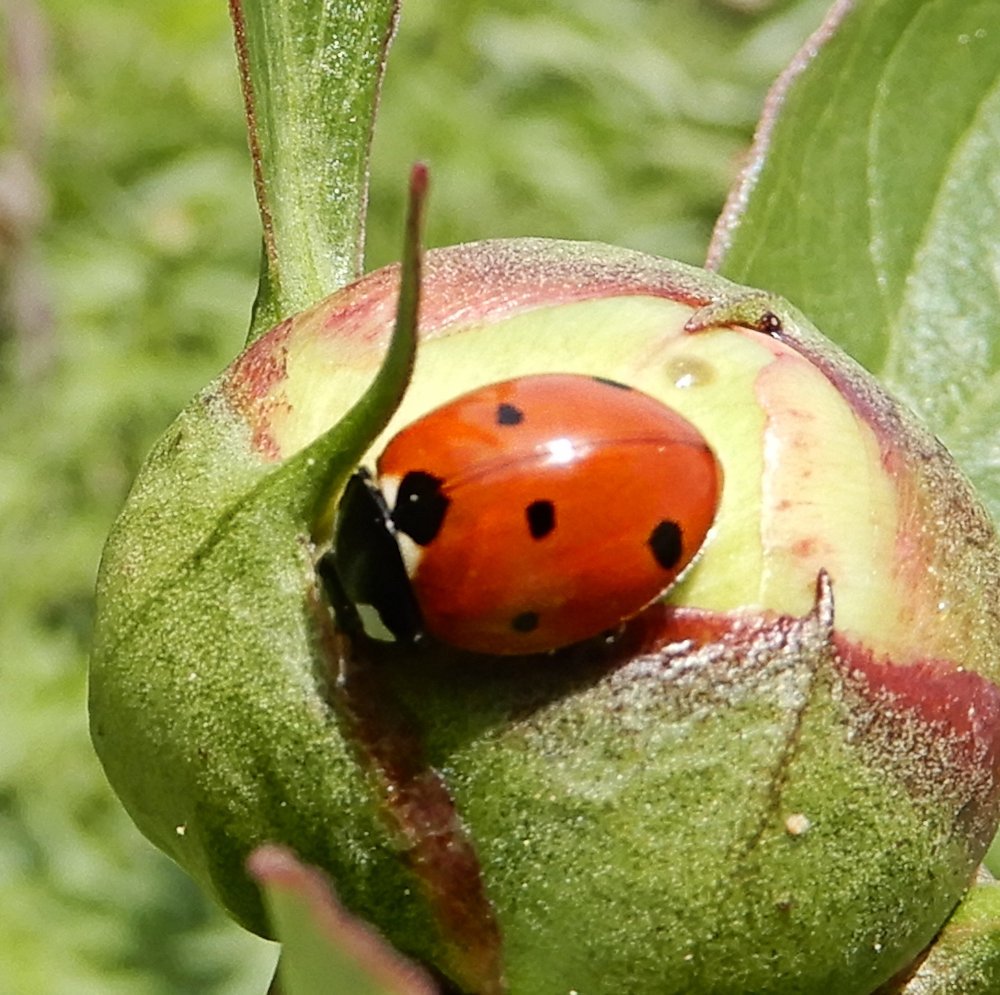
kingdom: Animalia
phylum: Arthropoda
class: Insecta
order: Coleoptera
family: Coccinellidae
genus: Coccinella
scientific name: Coccinella septempunctata
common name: Sevenspotted lady beetle
